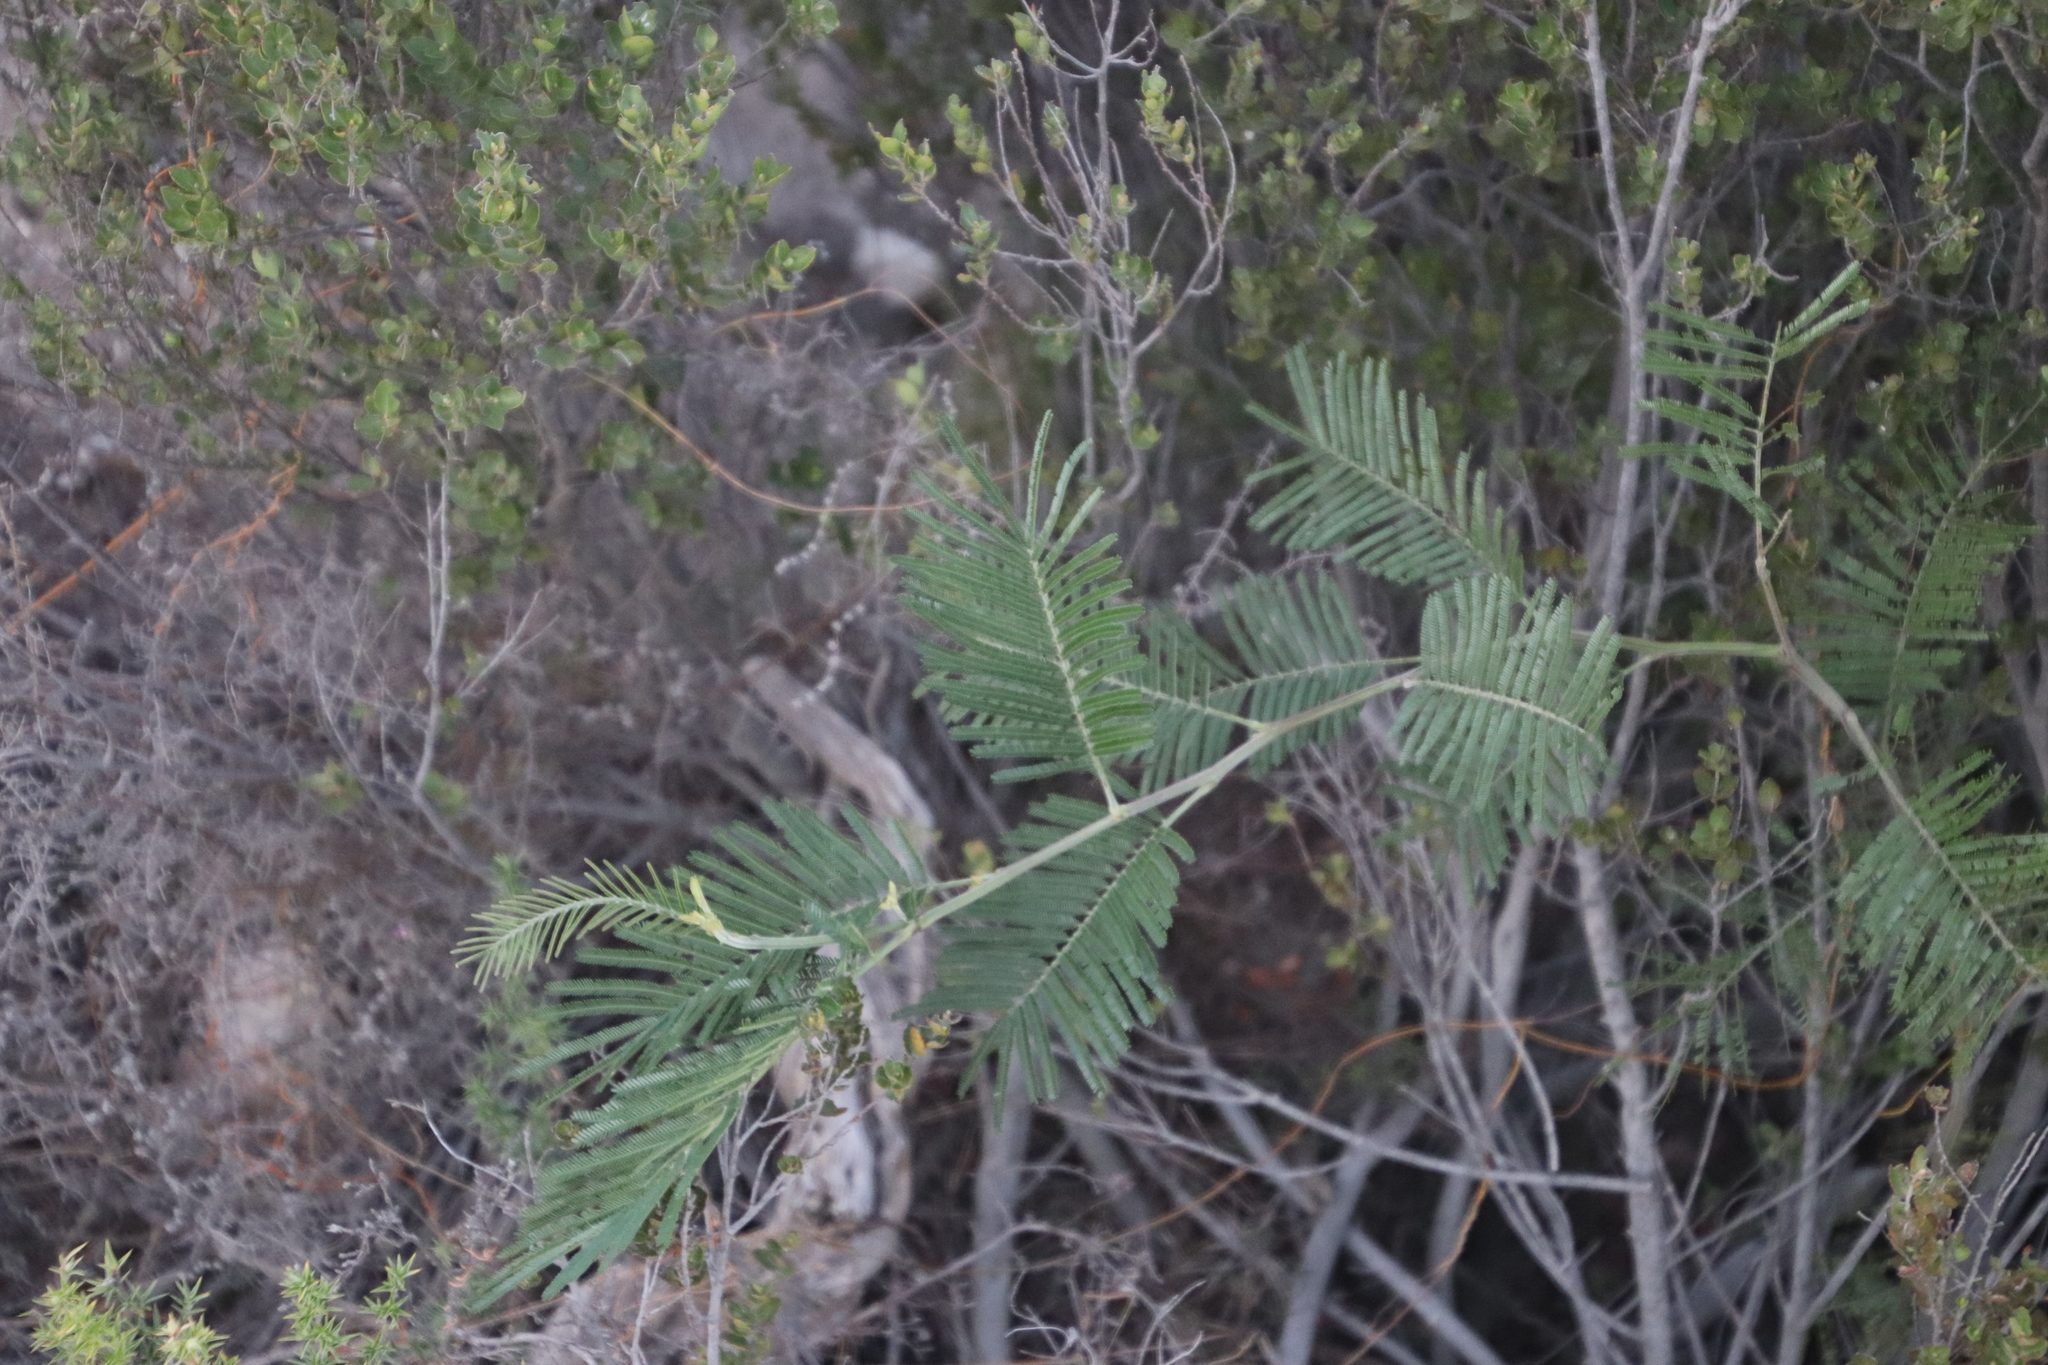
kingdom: Plantae
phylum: Tracheophyta
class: Magnoliopsida
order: Fabales
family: Fabaceae
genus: Acacia
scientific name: Acacia mearnsii
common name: Black wattle
